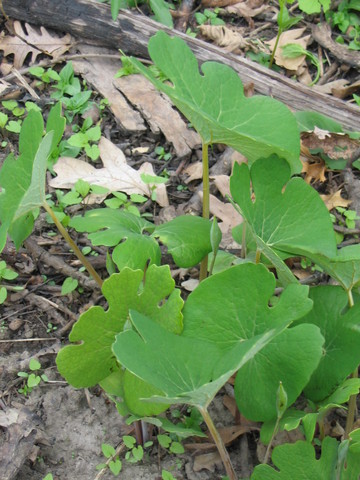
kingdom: Plantae
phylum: Tracheophyta
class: Magnoliopsida
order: Ranunculales
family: Papaveraceae
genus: Sanguinaria
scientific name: Sanguinaria canadensis
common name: Bloodroot
